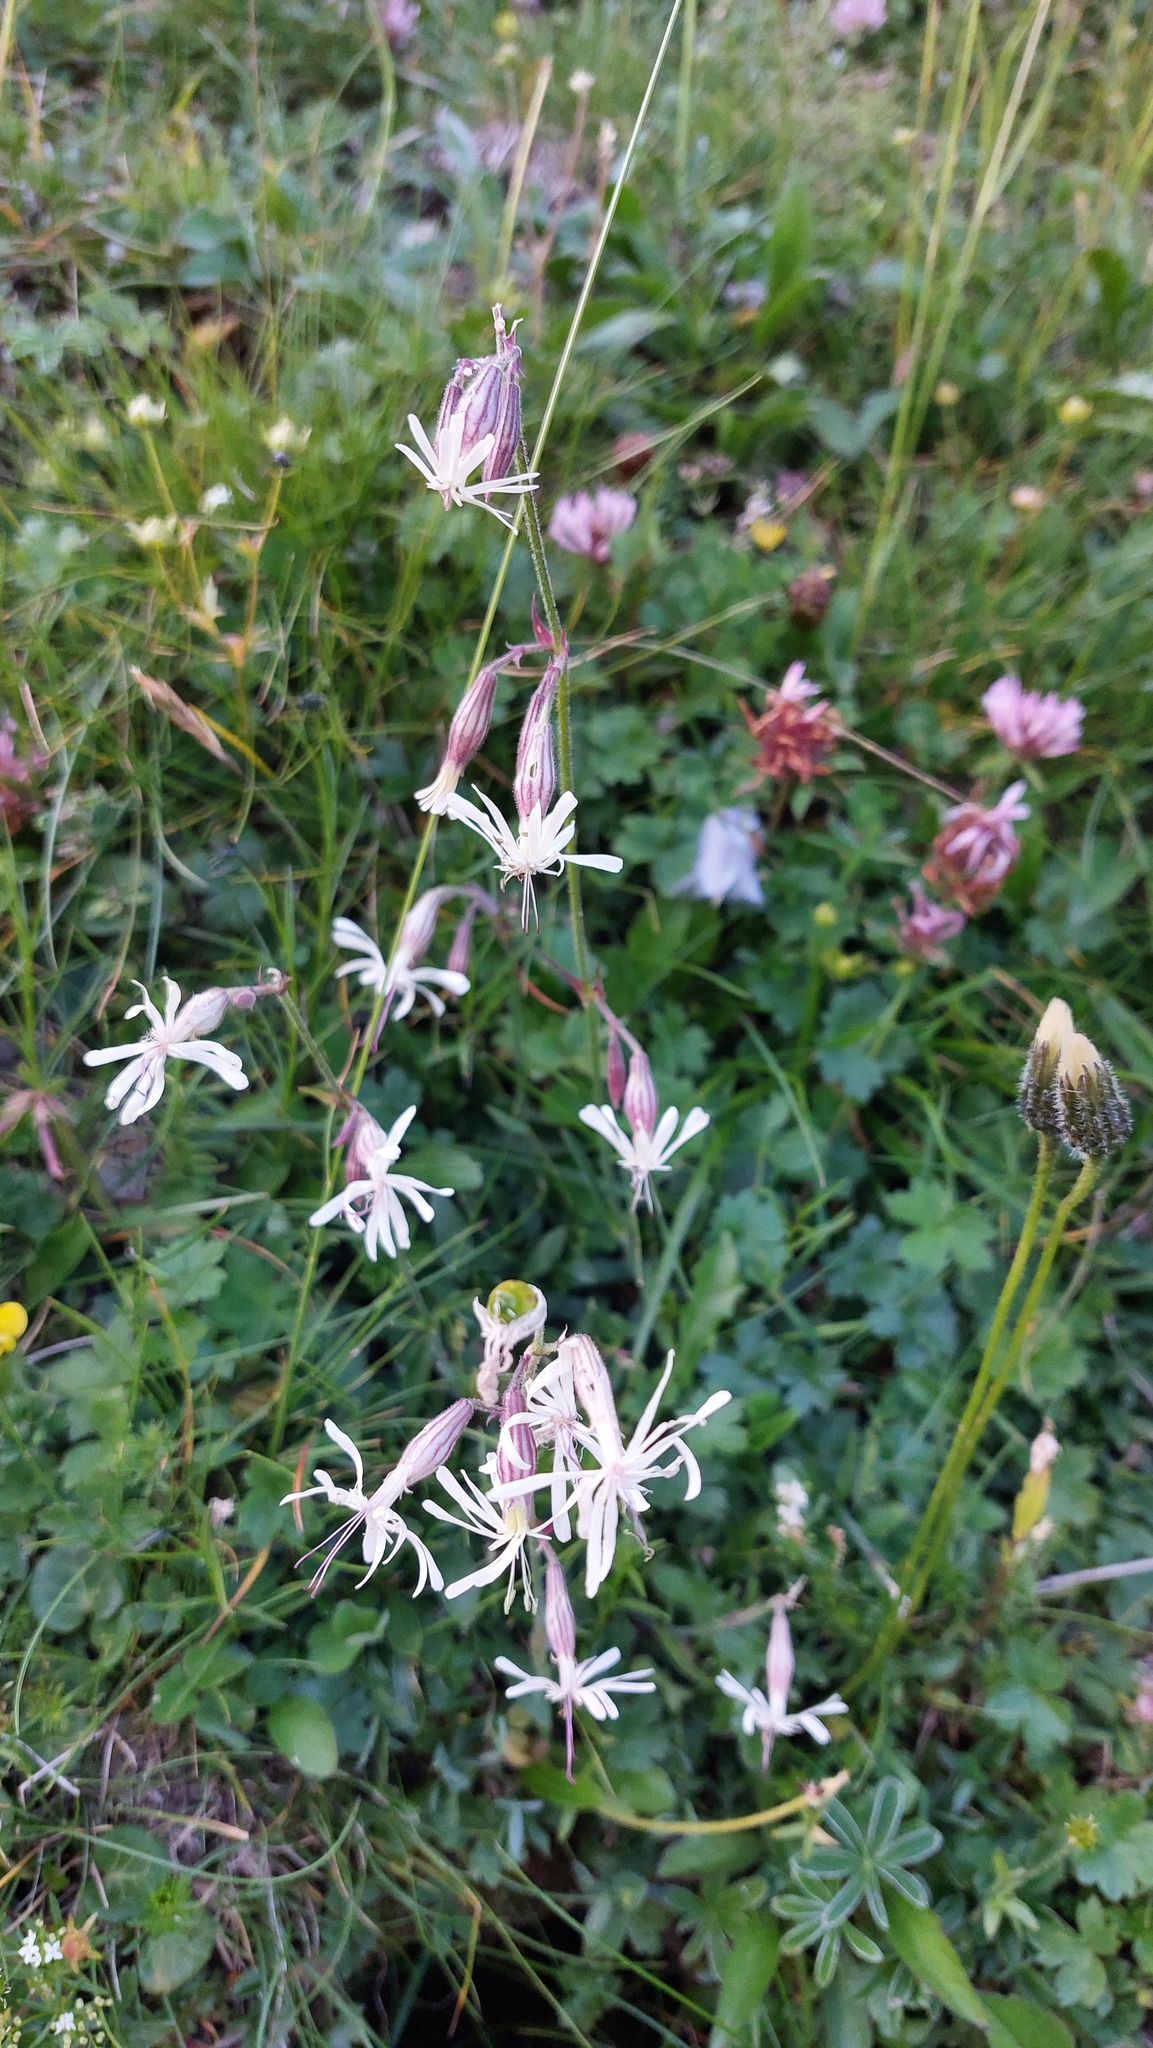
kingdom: Plantae
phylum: Tracheophyta
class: Magnoliopsida
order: Caryophyllales
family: Caryophyllaceae
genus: Silene
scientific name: Silene nutans
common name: Nottingham catchfly
